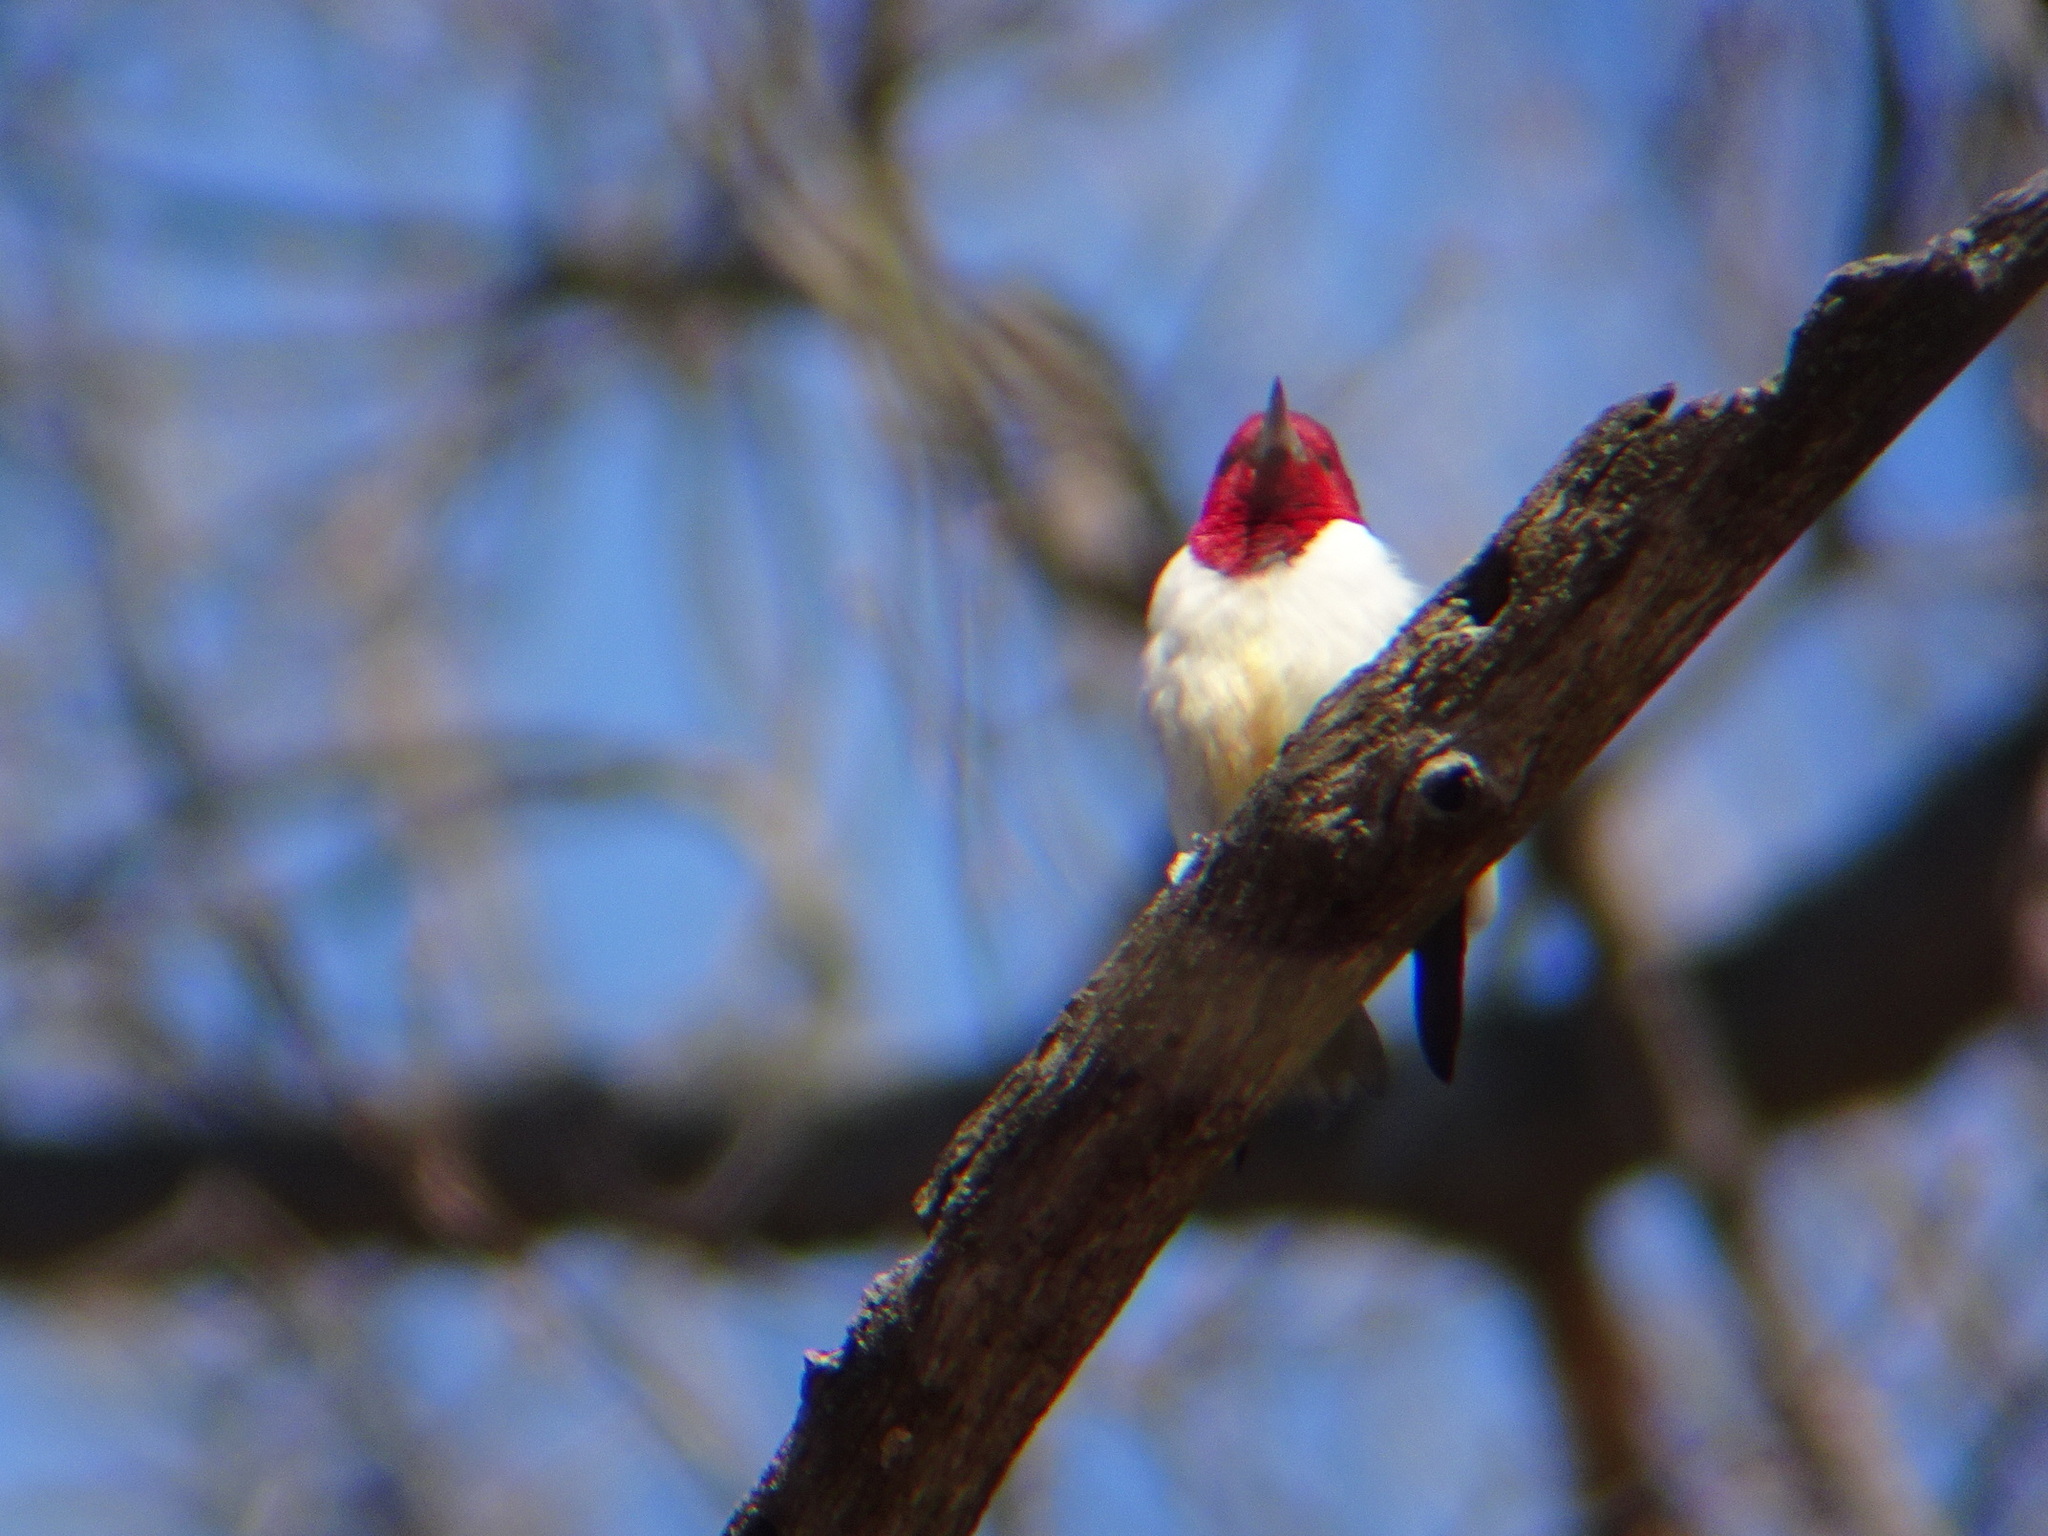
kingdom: Animalia
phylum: Chordata
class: Aves
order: Piciformes
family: Picidae
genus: Melanerpes
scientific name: Melanerpes erythrocephalus
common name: Red-headed woodpecker
